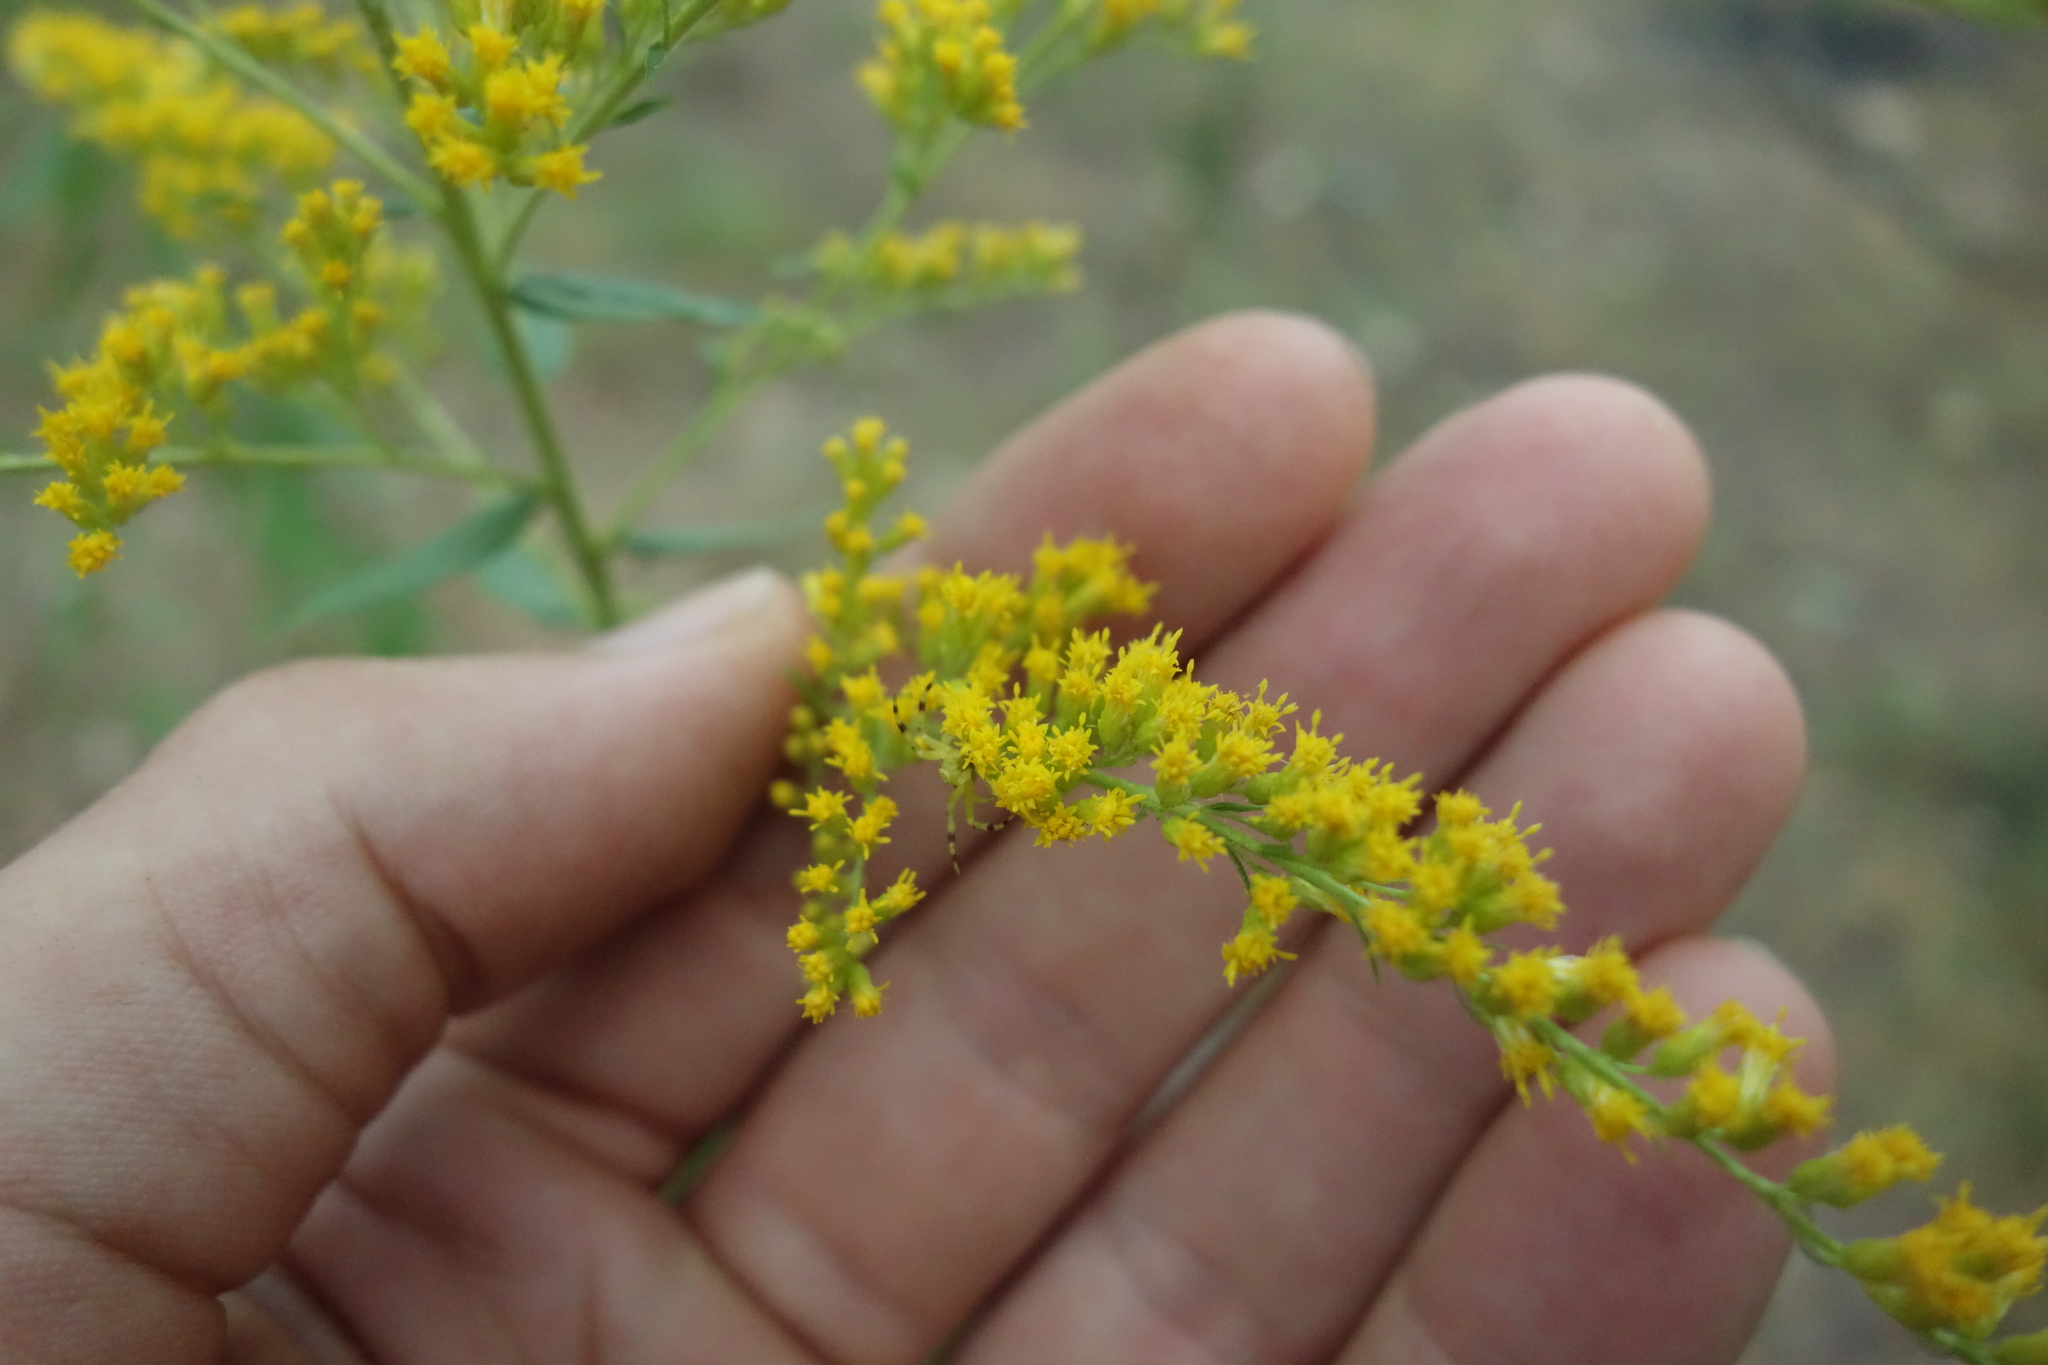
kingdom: Plantae
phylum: Tracheophyta
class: Magnoliopsida
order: Asterales
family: Asteraceae
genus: Solidago
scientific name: Solidago canadensis
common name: Canada goldenrod
